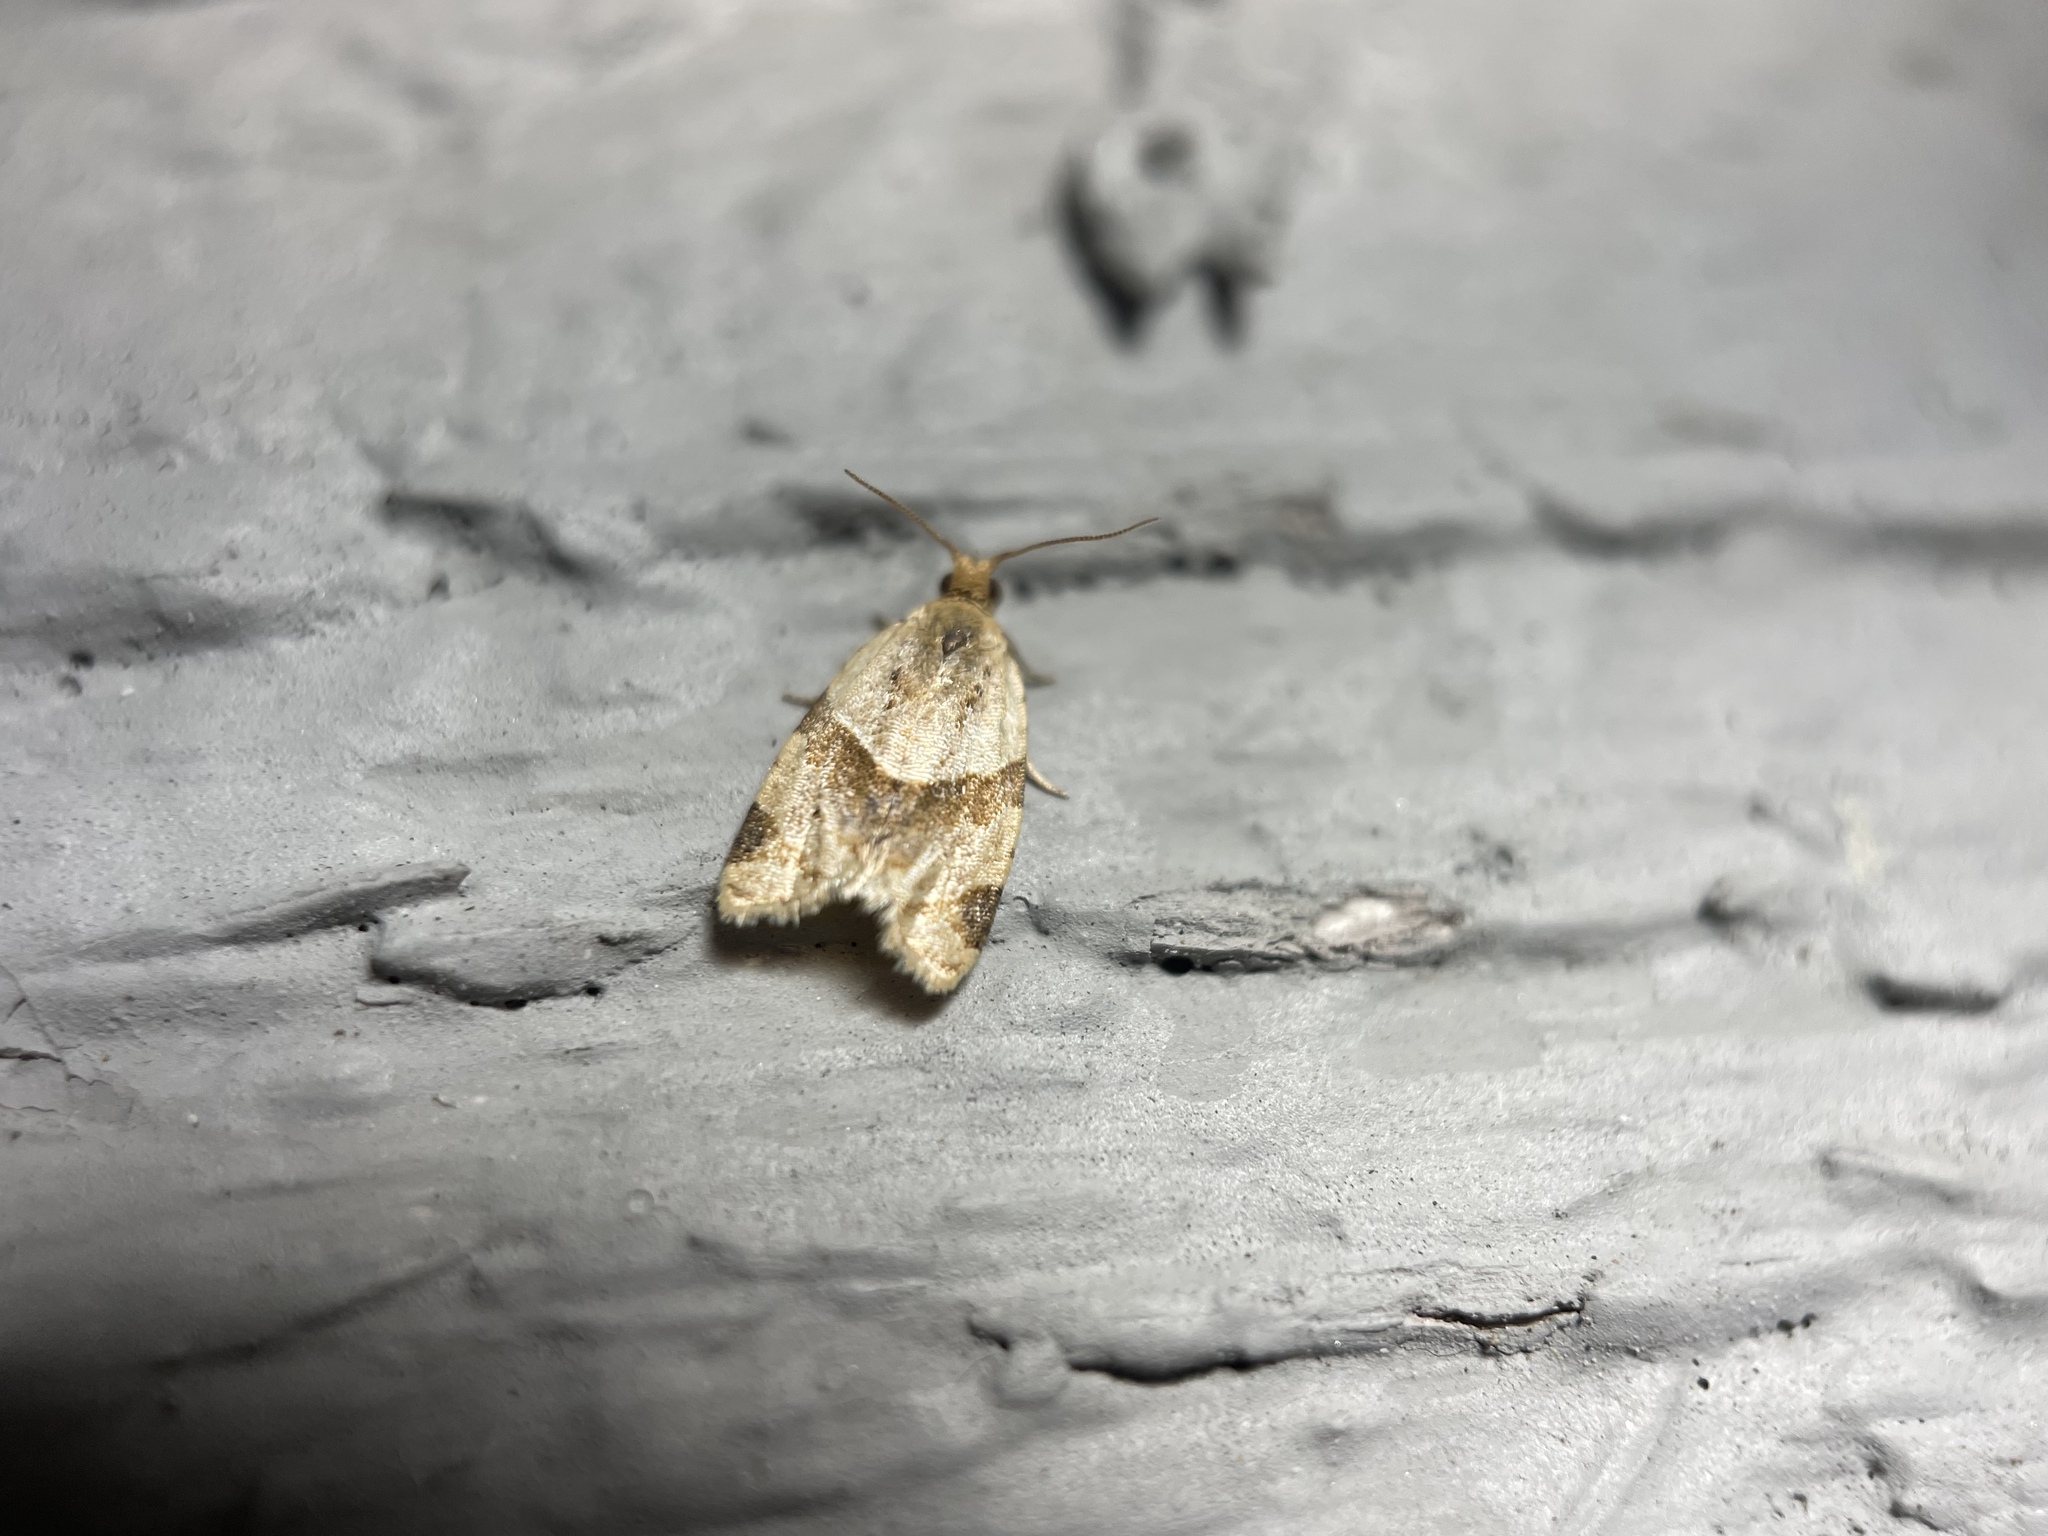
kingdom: Animalia
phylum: Arthropoda
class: Insecta
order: Lepidoptera
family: Tortricidae
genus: Clepsis
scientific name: Clepsis peritana
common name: Garden tortrix
